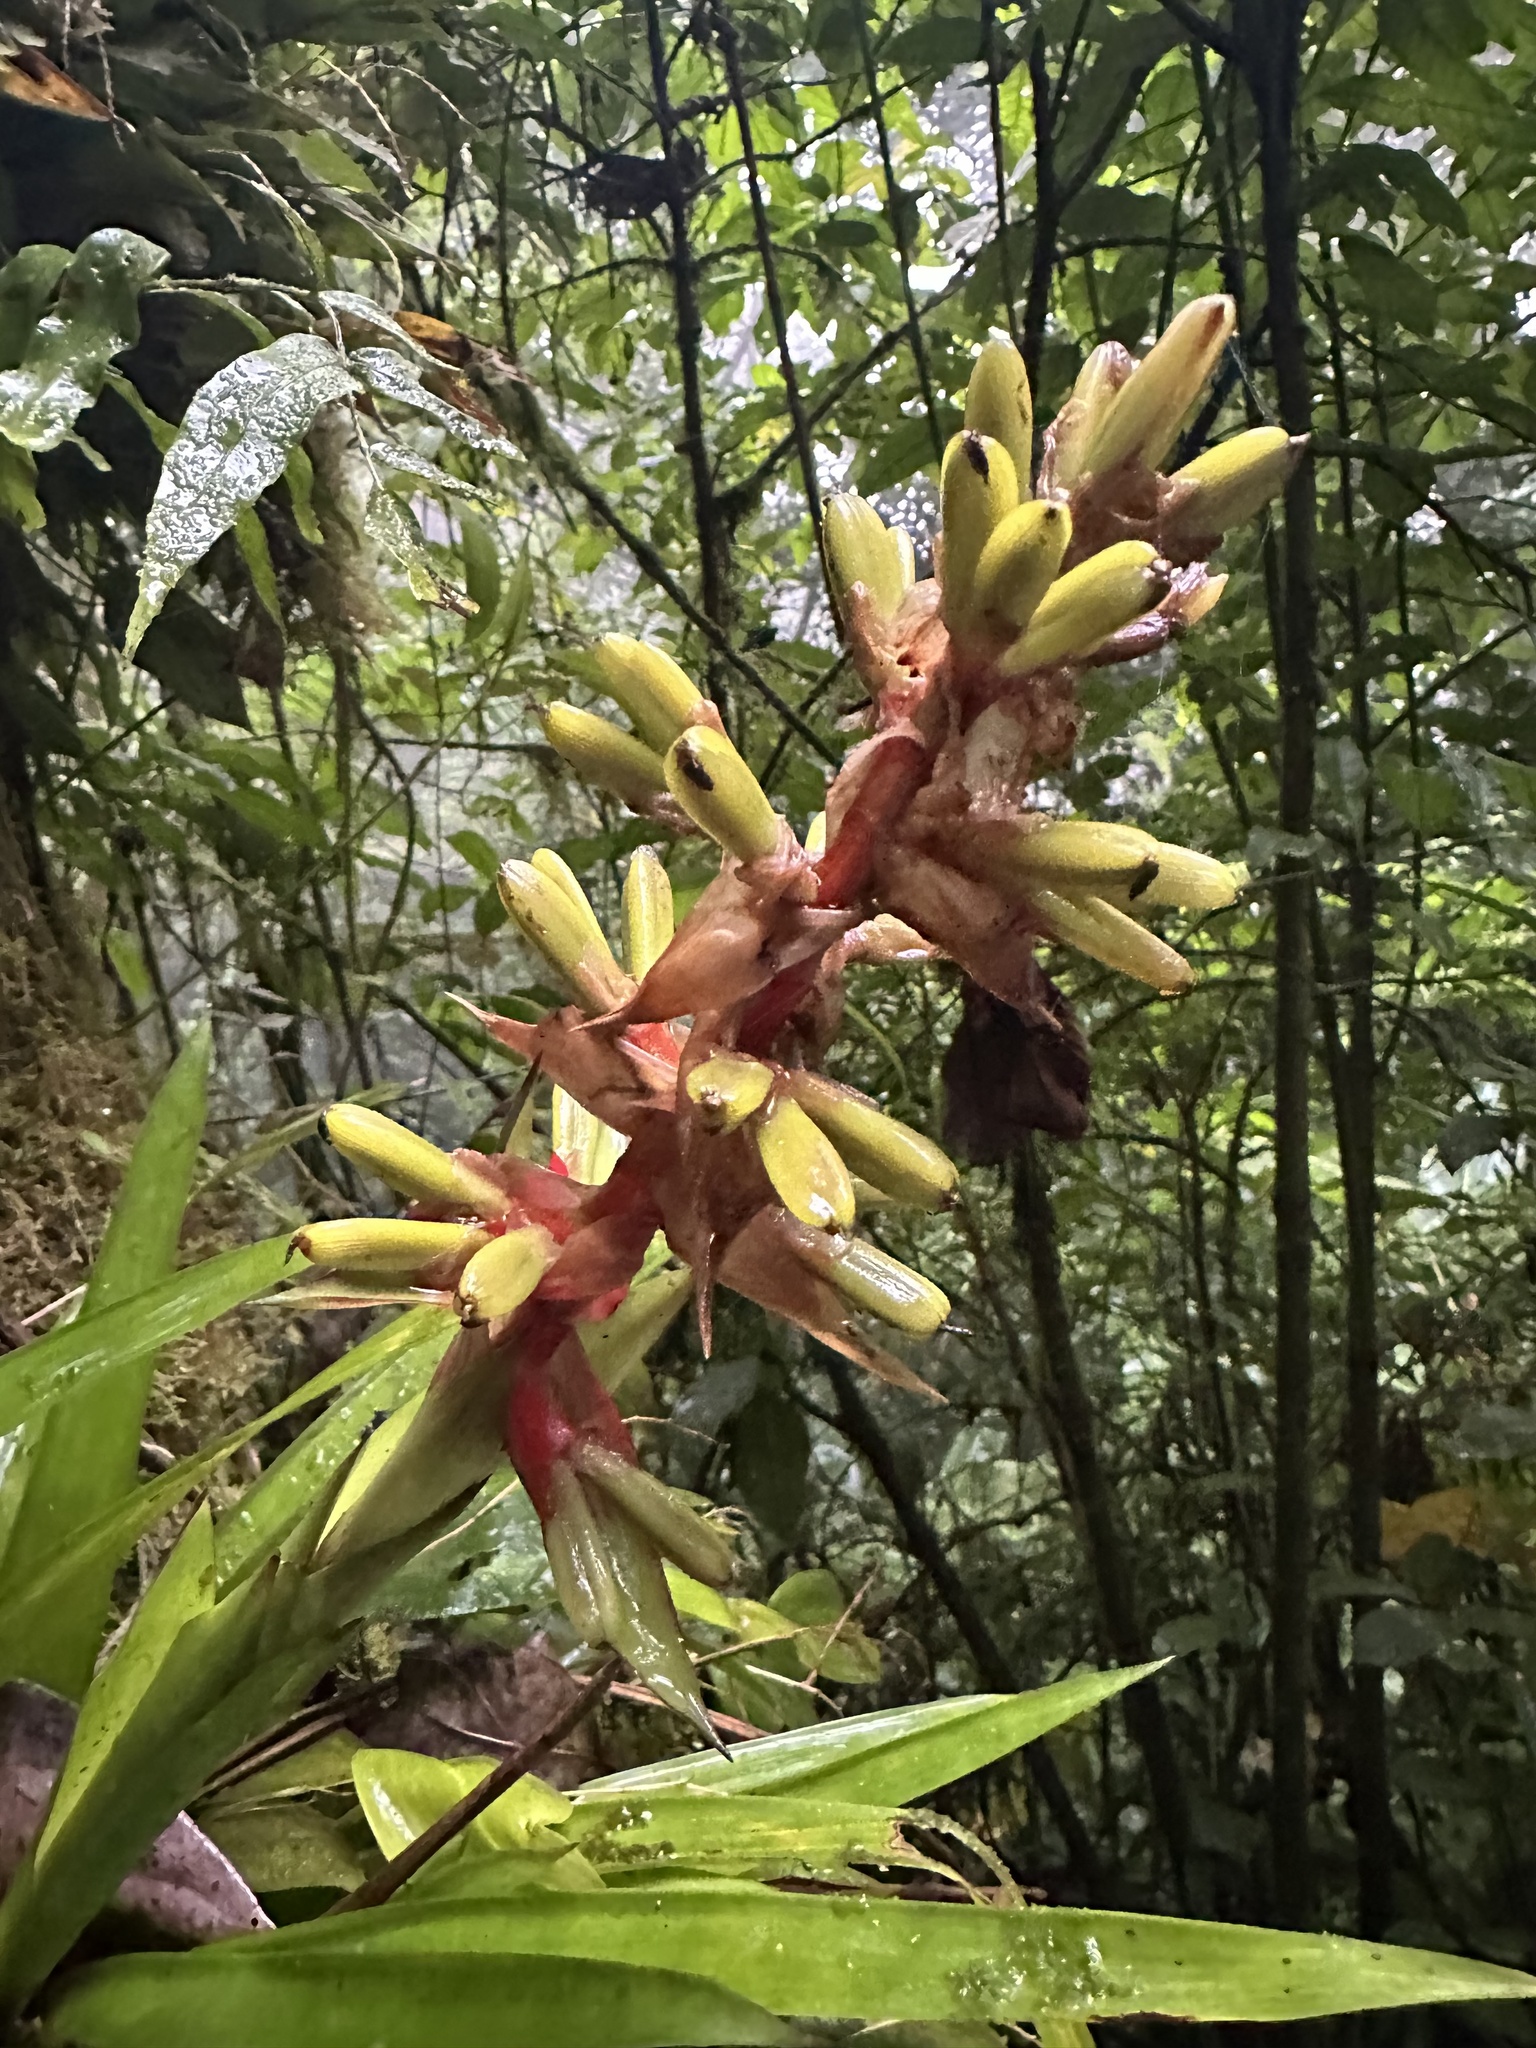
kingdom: Plantae
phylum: Tracheophyta
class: Liliopsida
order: Poales
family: Bromeliaceae
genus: Guzmania
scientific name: Guzmania donnellsmithii
